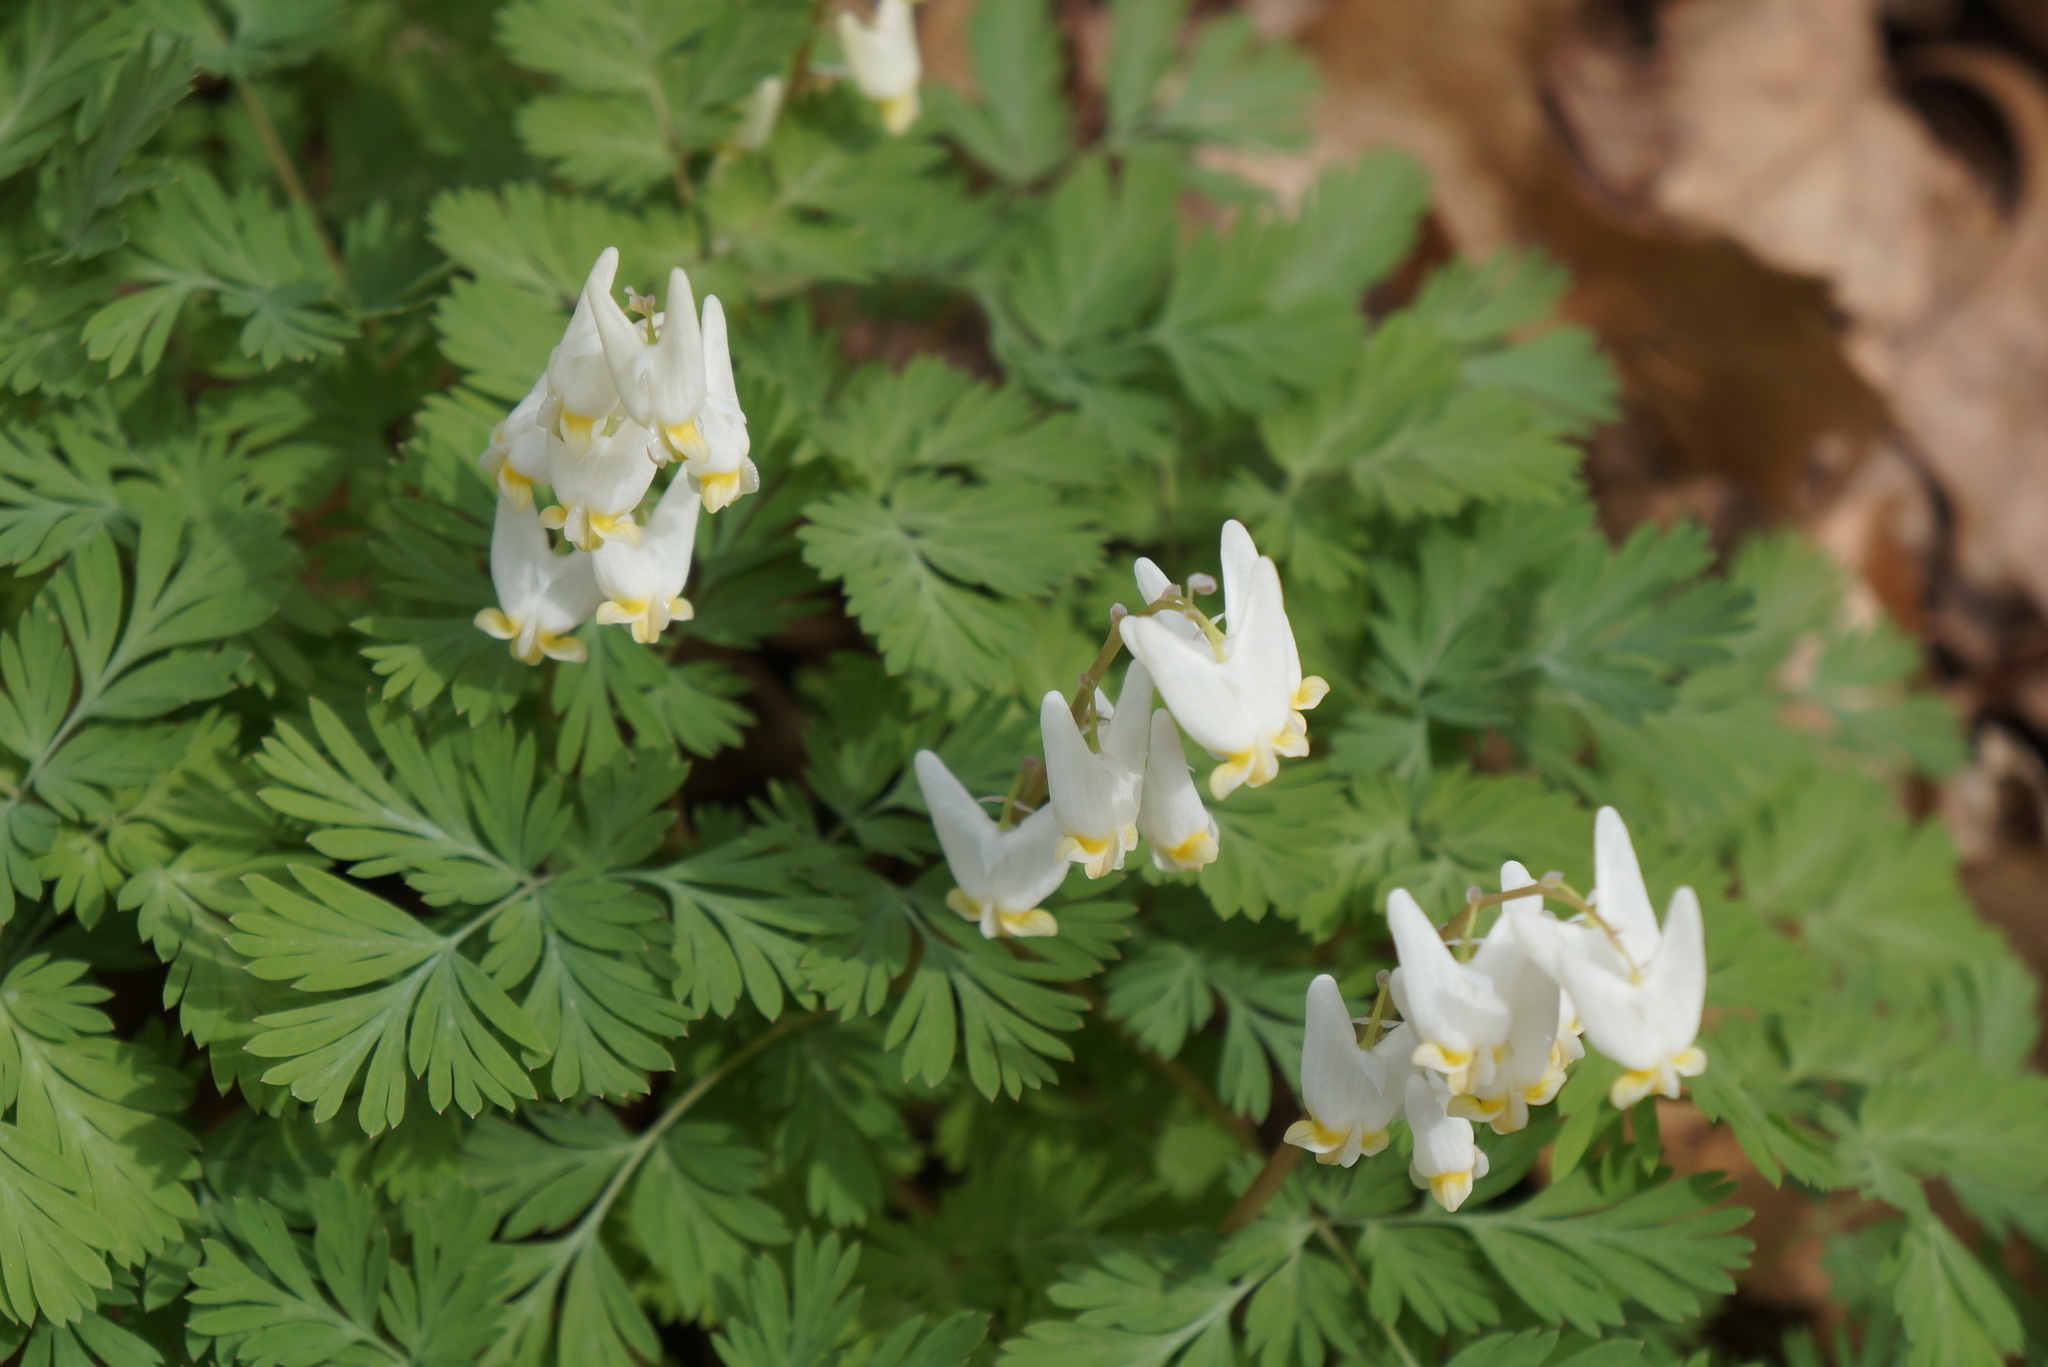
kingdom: Plantae
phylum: Tracheophyta
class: Magnoliopsida
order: Ranunculales
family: Papaveraceae
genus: Dicentra
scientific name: Dicentra cucullaria
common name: Dutchman's breeches
